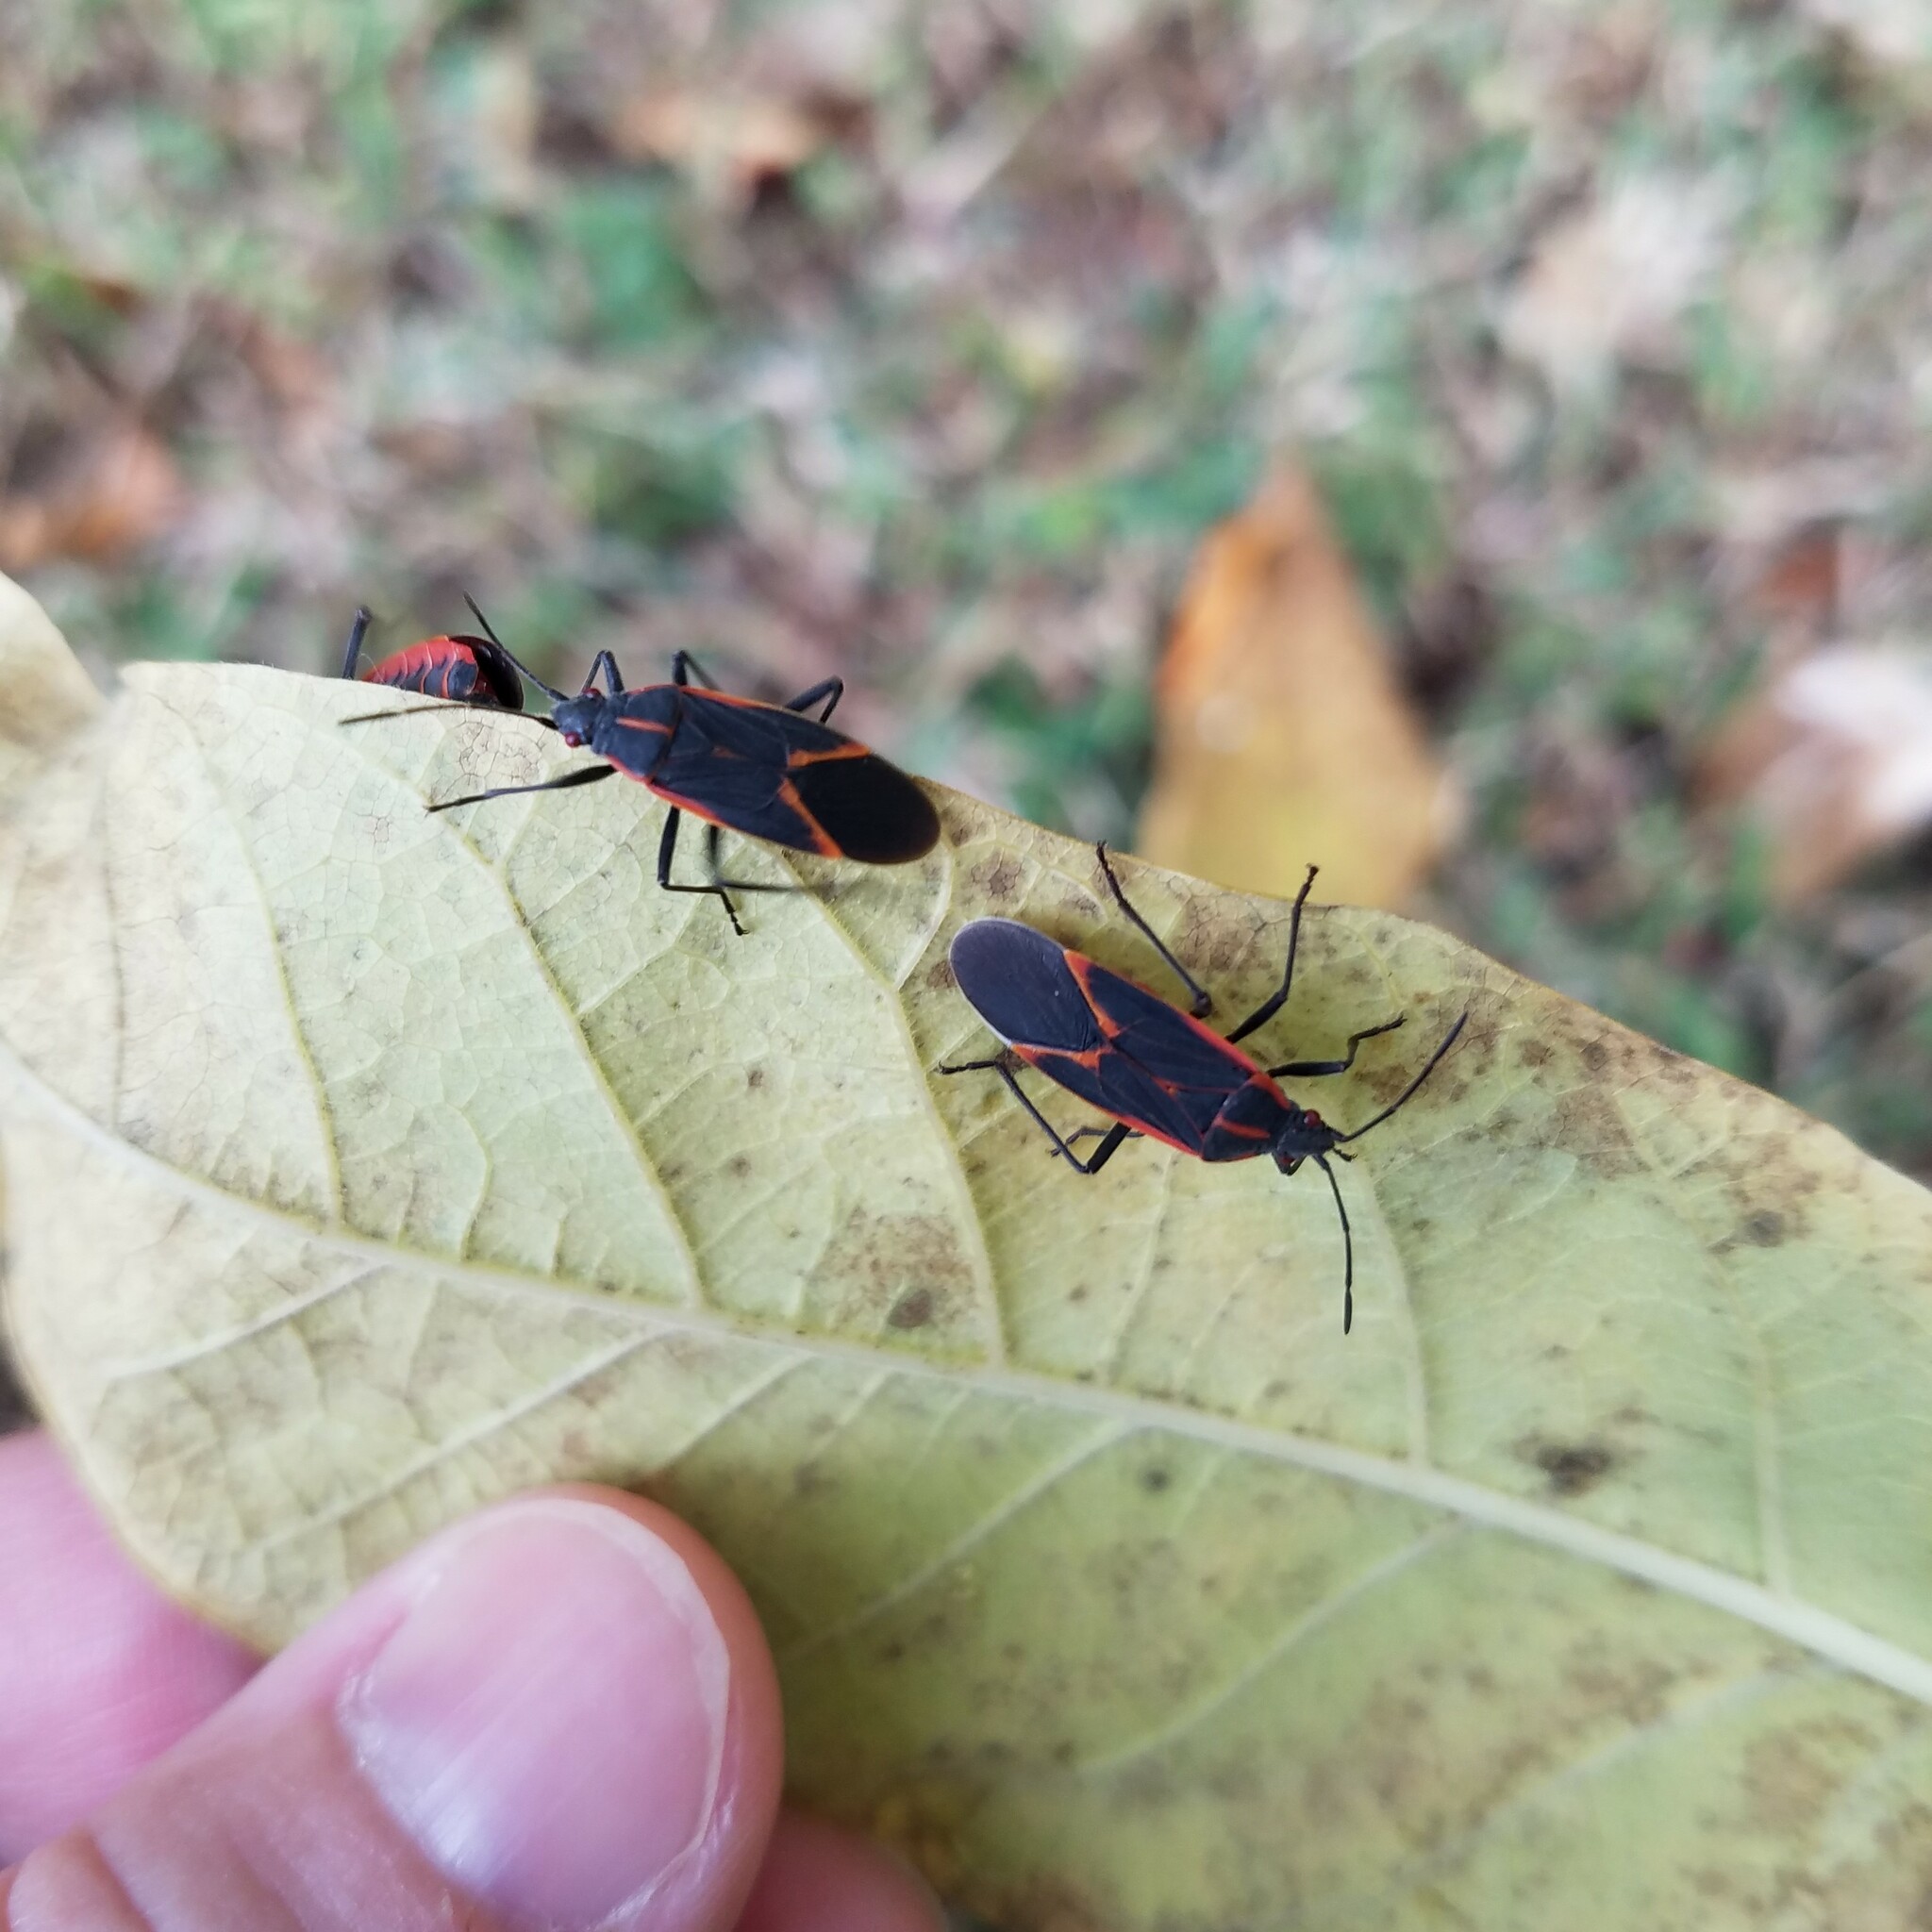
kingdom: Animalia
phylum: Arthropoda
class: Insecta
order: Hemiptera
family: Rhopalidae
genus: Boisea
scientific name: Boisea trivittata
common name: Boxelder bug
